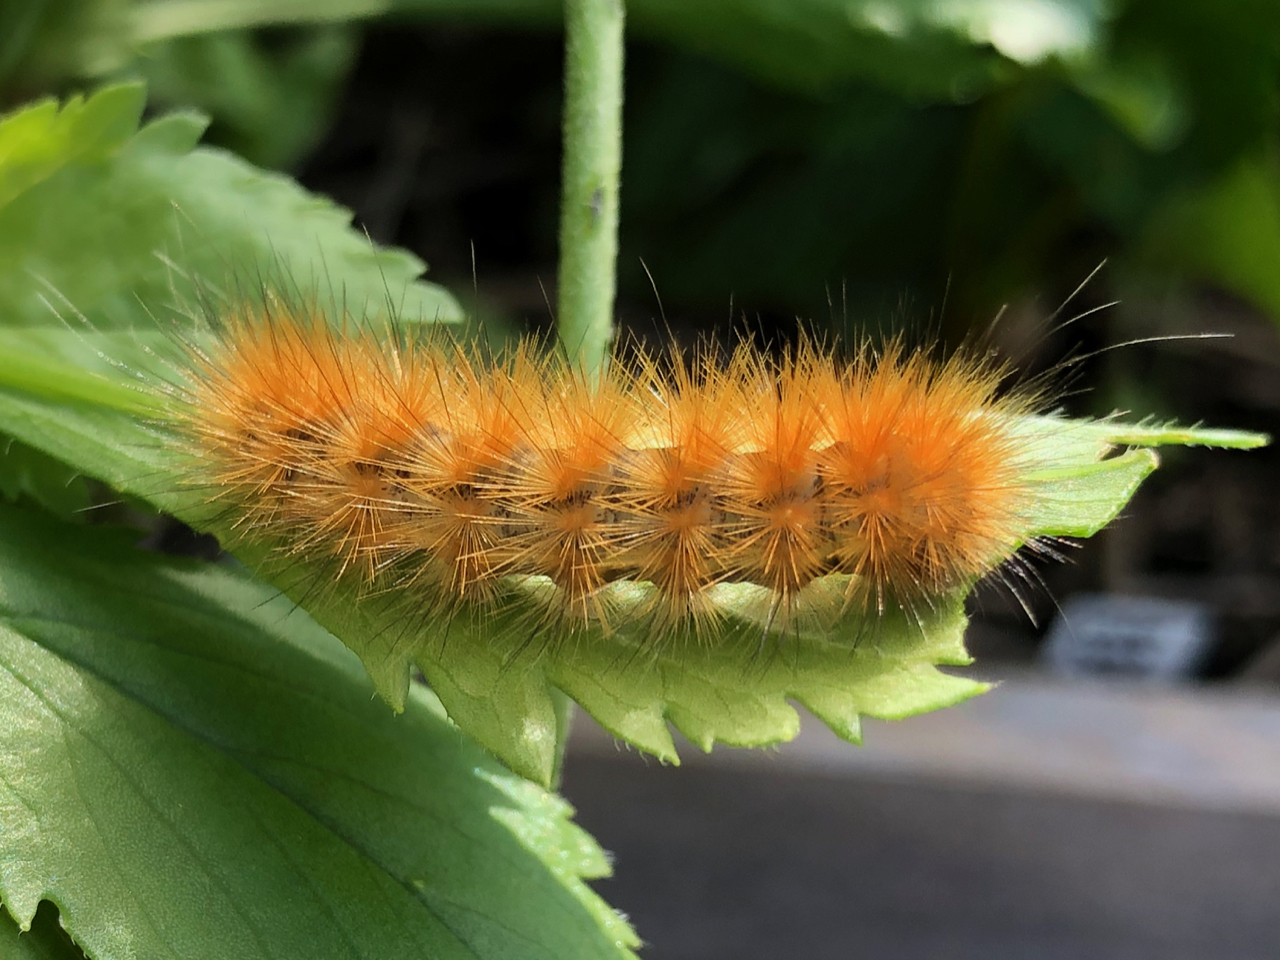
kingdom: Animalia
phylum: Arthropoda
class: Insecta
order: Lepidoptera
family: Erebidae
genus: Spilosoma
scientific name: Spilosoma virginica
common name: Virginia tiger moth
